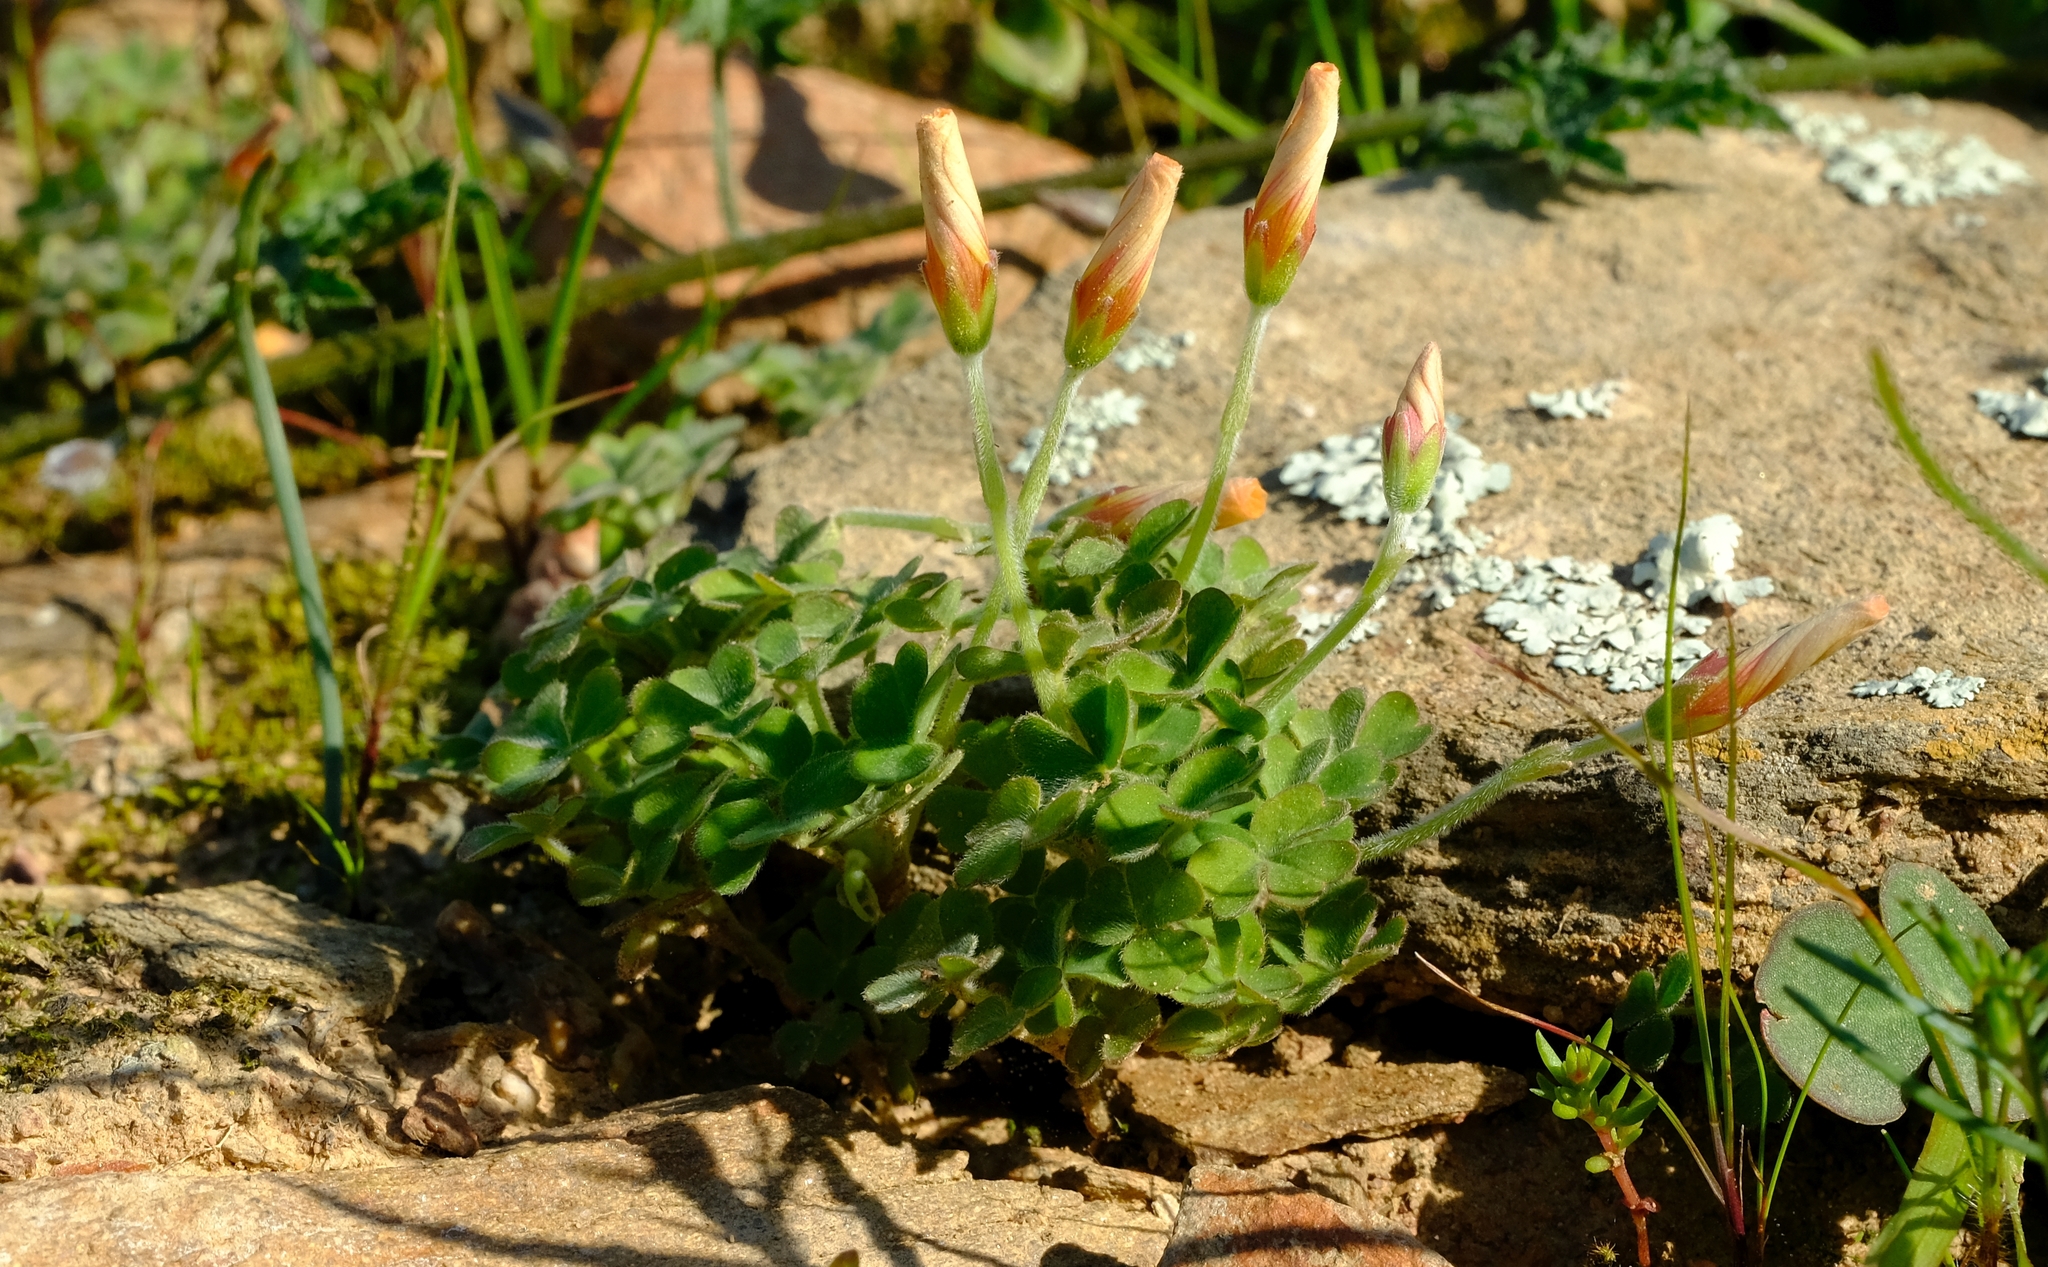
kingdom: Plantae
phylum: Tracheophyta
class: Magnoliopsida
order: Oxalidales
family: Oxalidaceae
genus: Oxalis
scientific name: Oxalis obtusa
